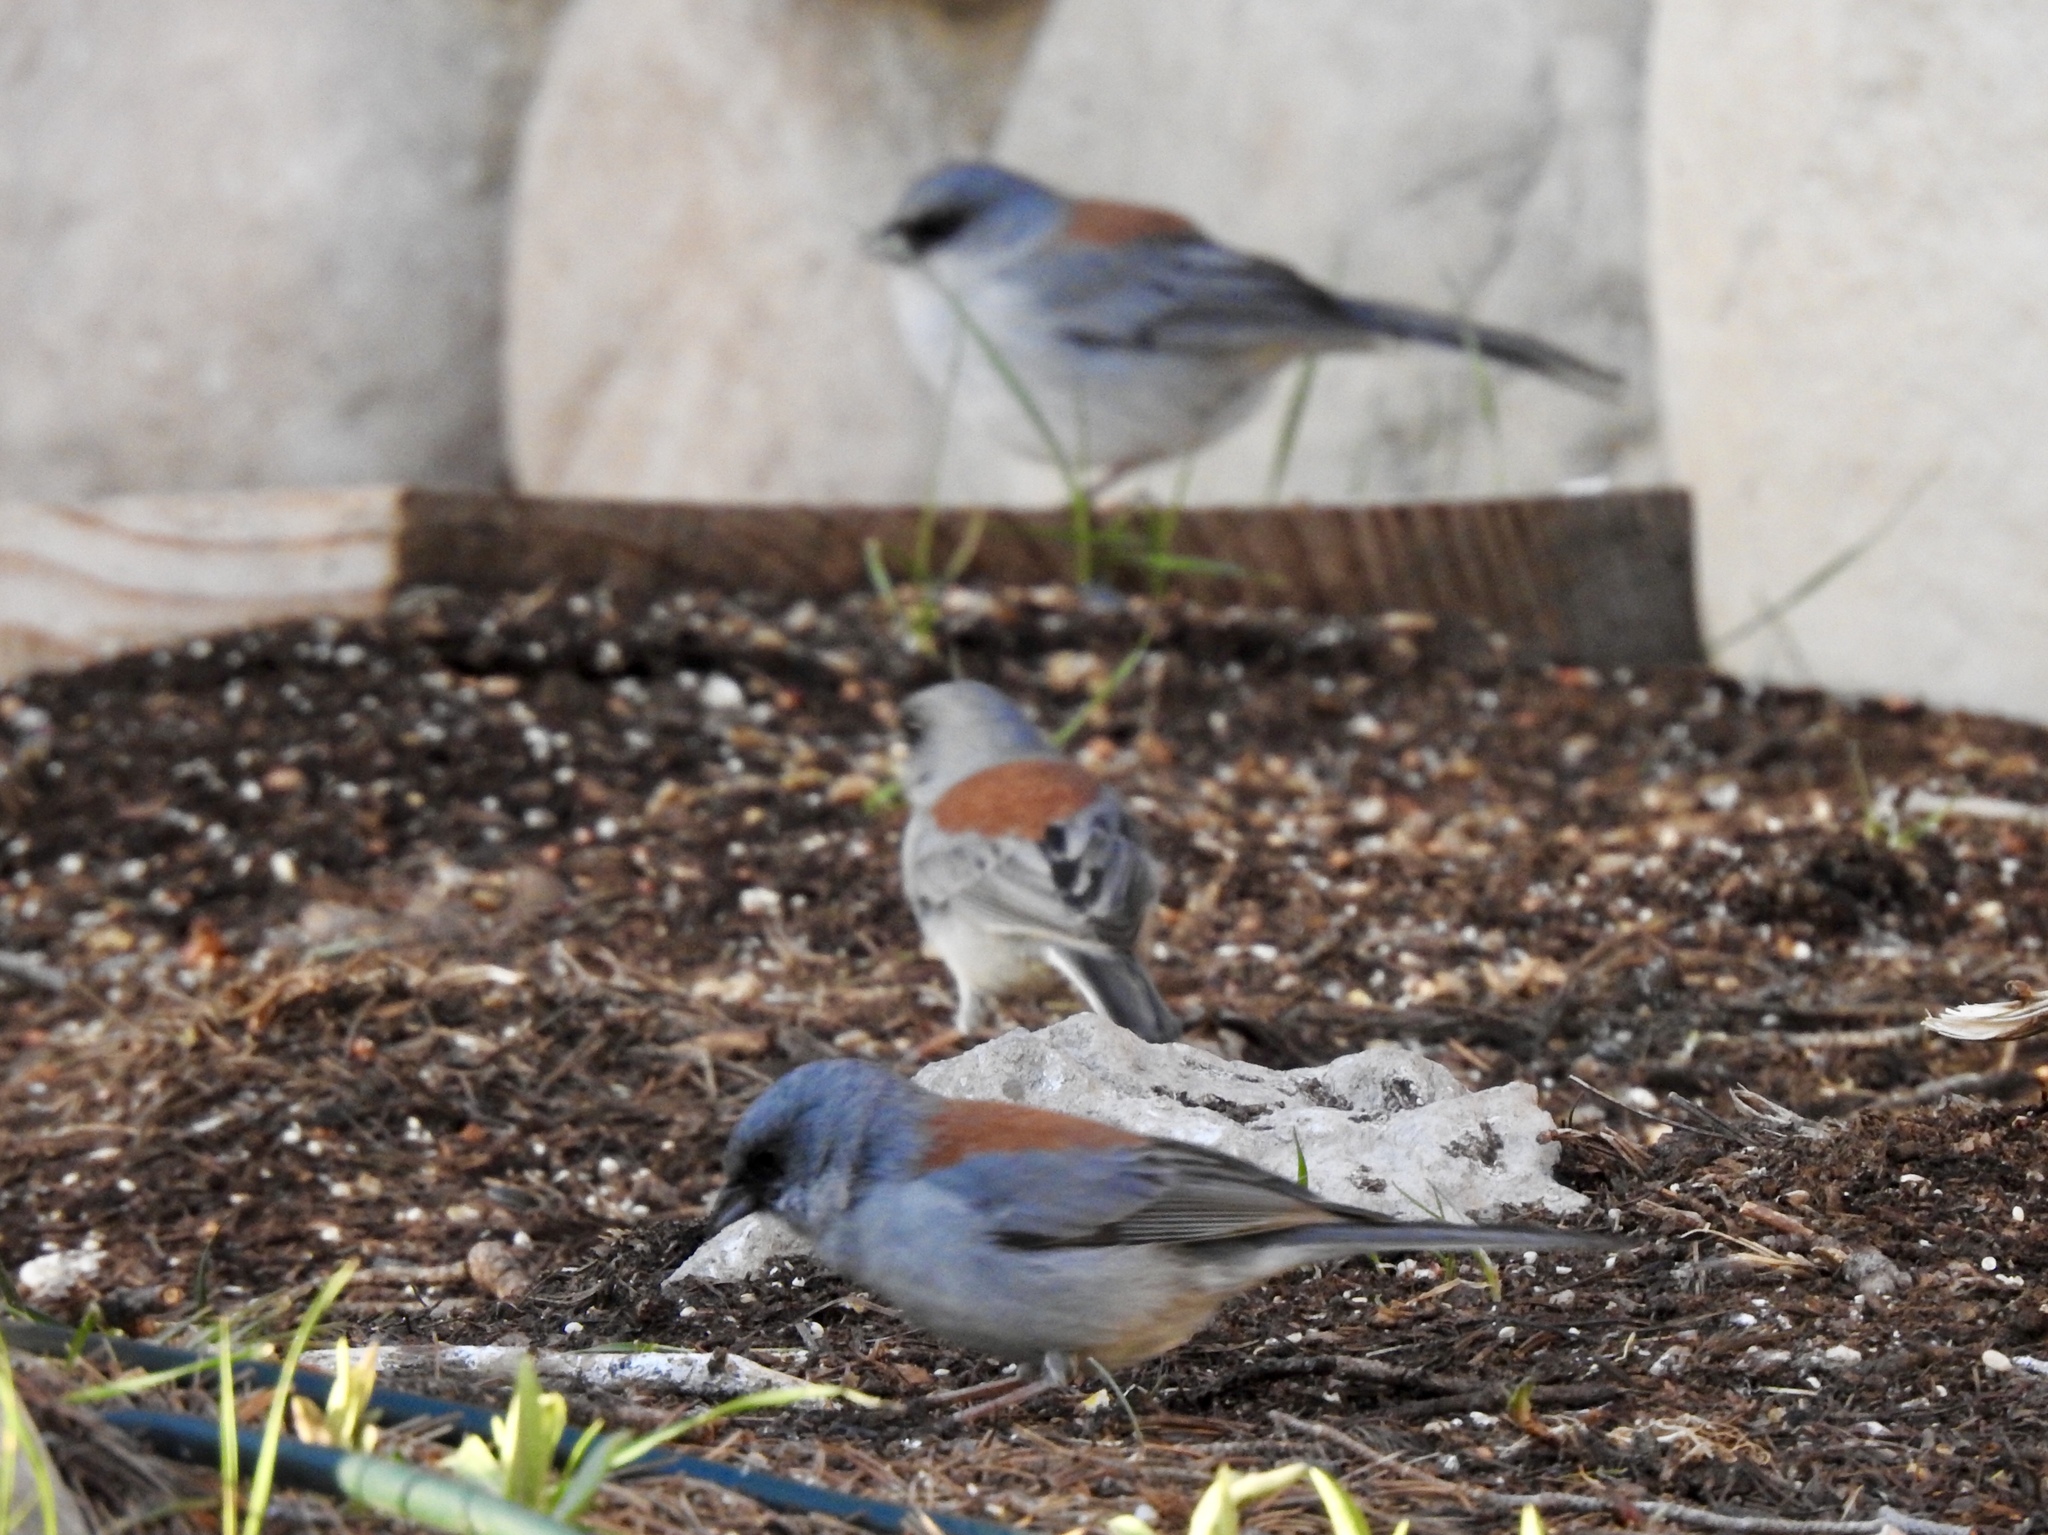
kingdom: Animalia
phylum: Chordata
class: Aves
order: Passeriformes
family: Passerellidae
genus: Junco
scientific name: Junco hyemalis
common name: Dark-eyed junco
